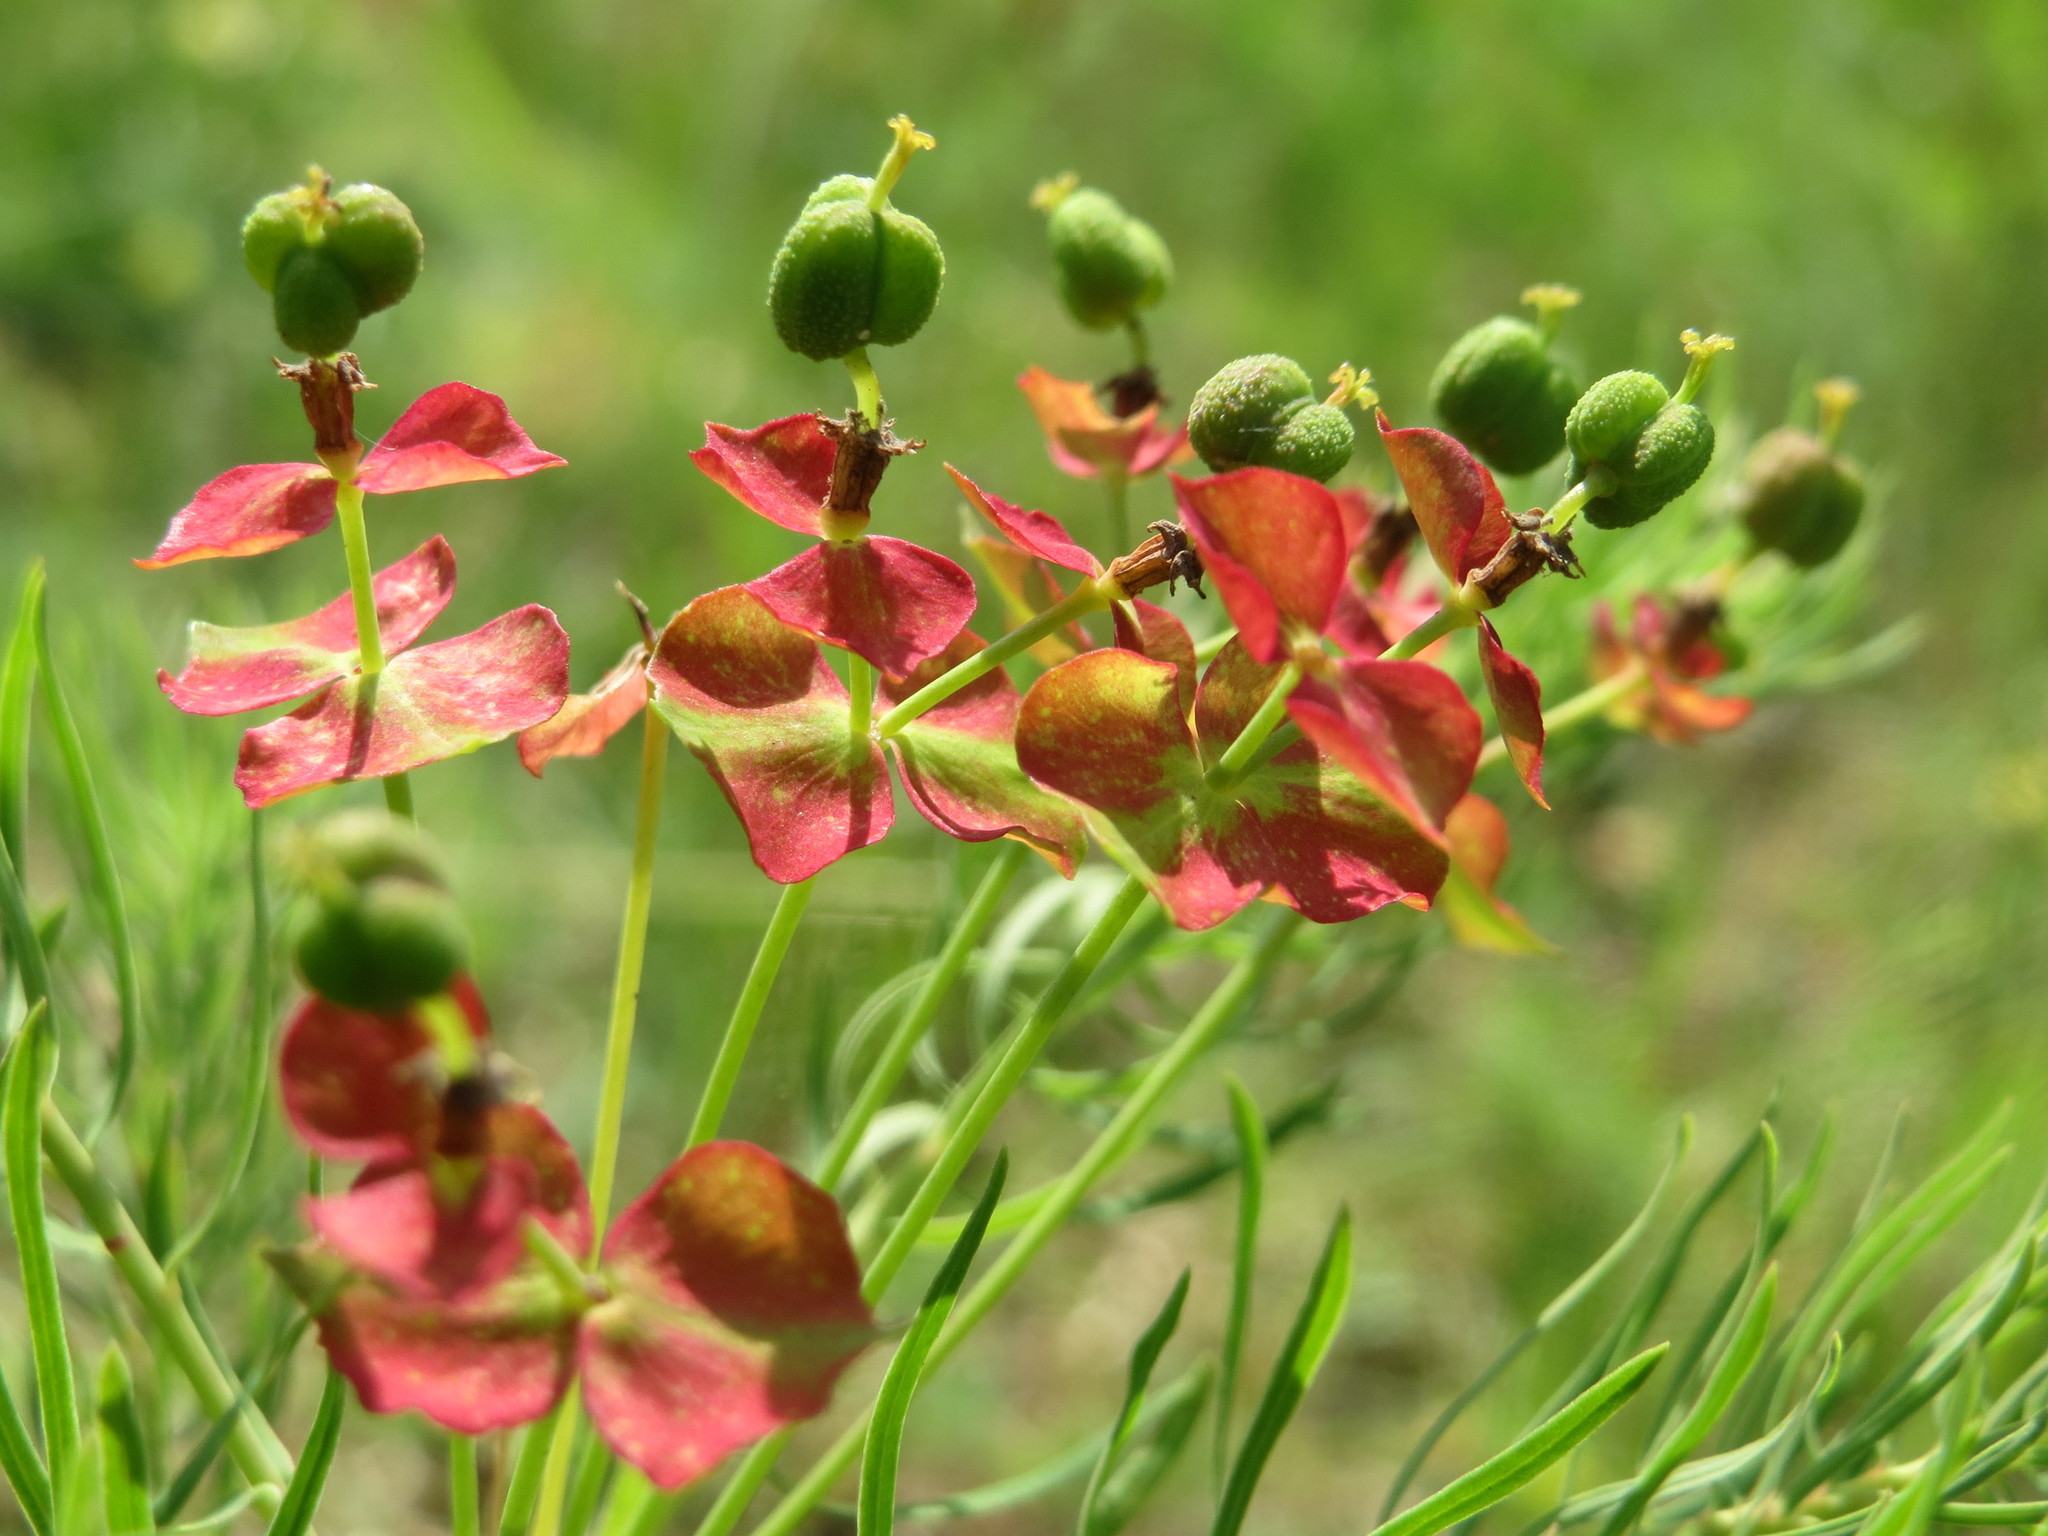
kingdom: Plantae
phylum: Tracheophyta
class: Magnoliopsida
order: Malpighiales
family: Euphorbiaceae
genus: Euphorbia
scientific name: Euphorbia cyparissias
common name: Cypress spurge
